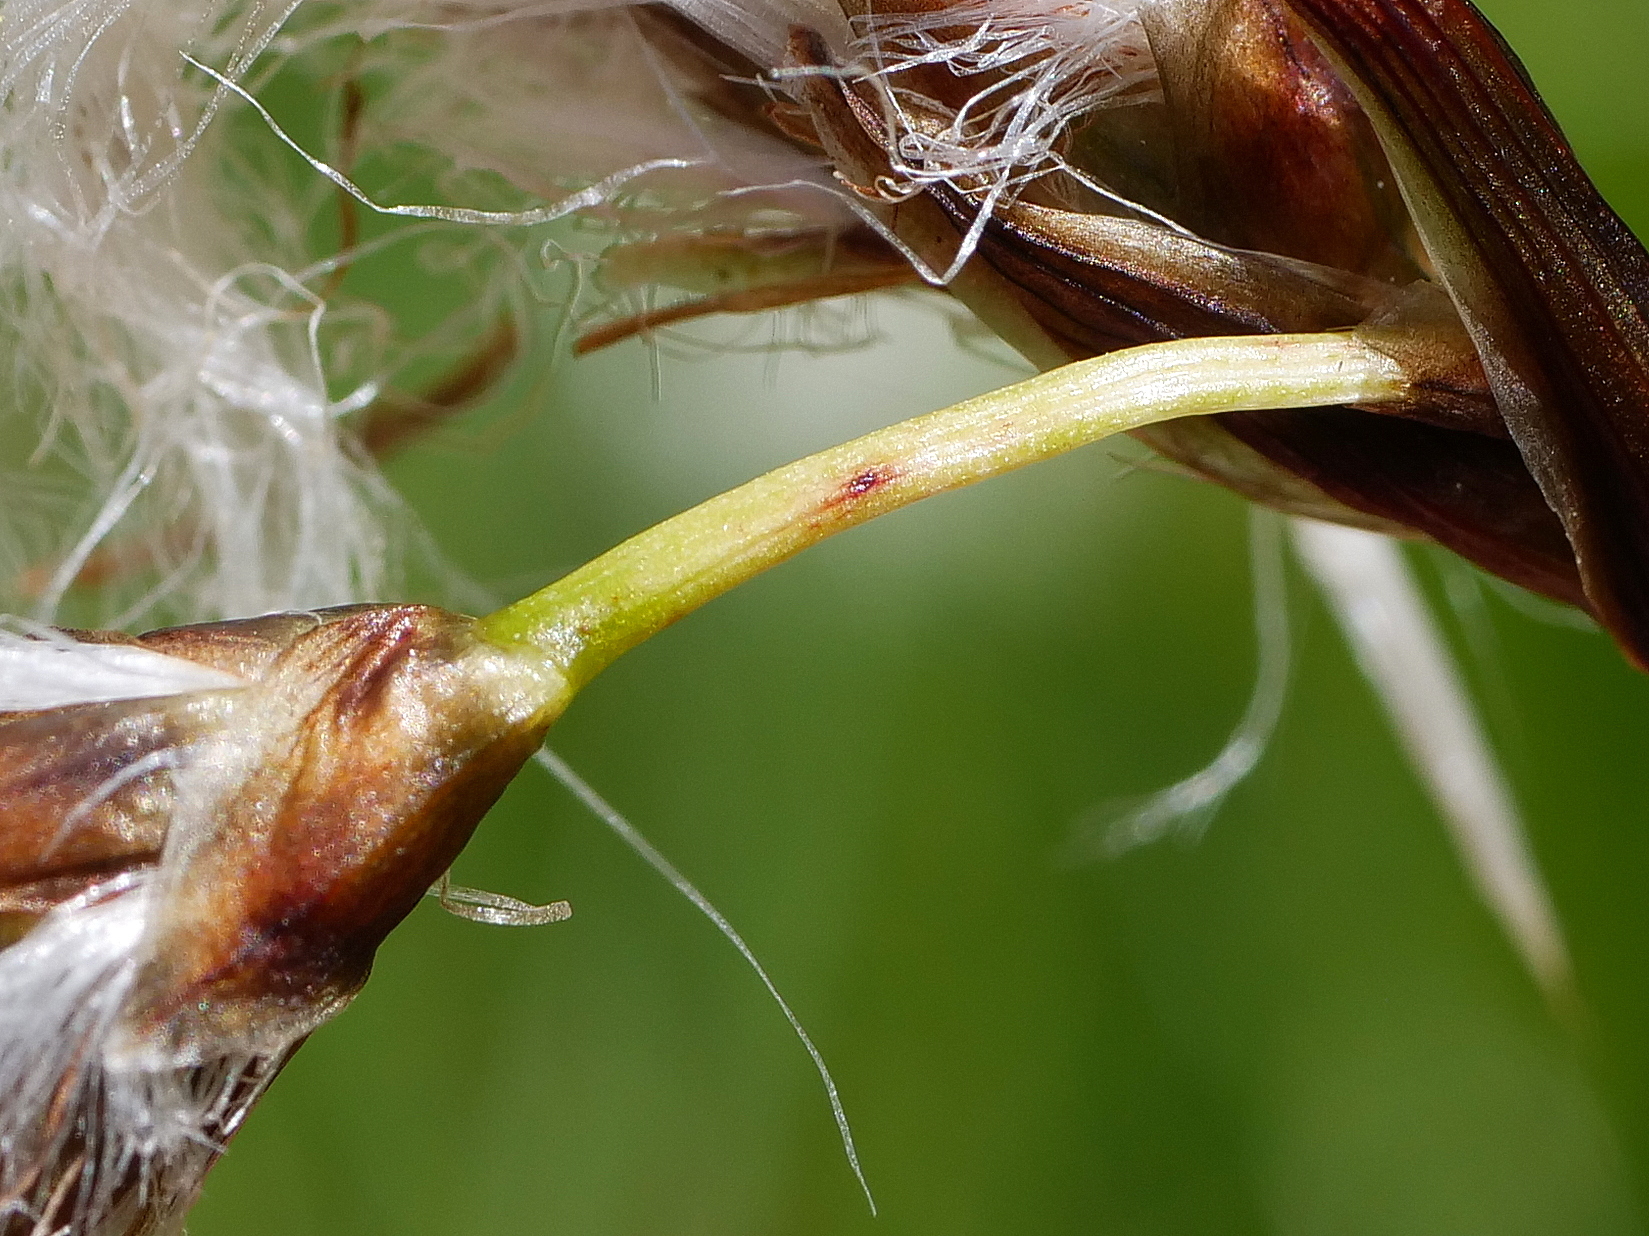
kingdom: Plantae
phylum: Tracheophyta
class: Liliopsida
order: Poales
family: Cyperaceae
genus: Eriophorum
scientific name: Eriophorum angustifolium
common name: Common cottongrass
